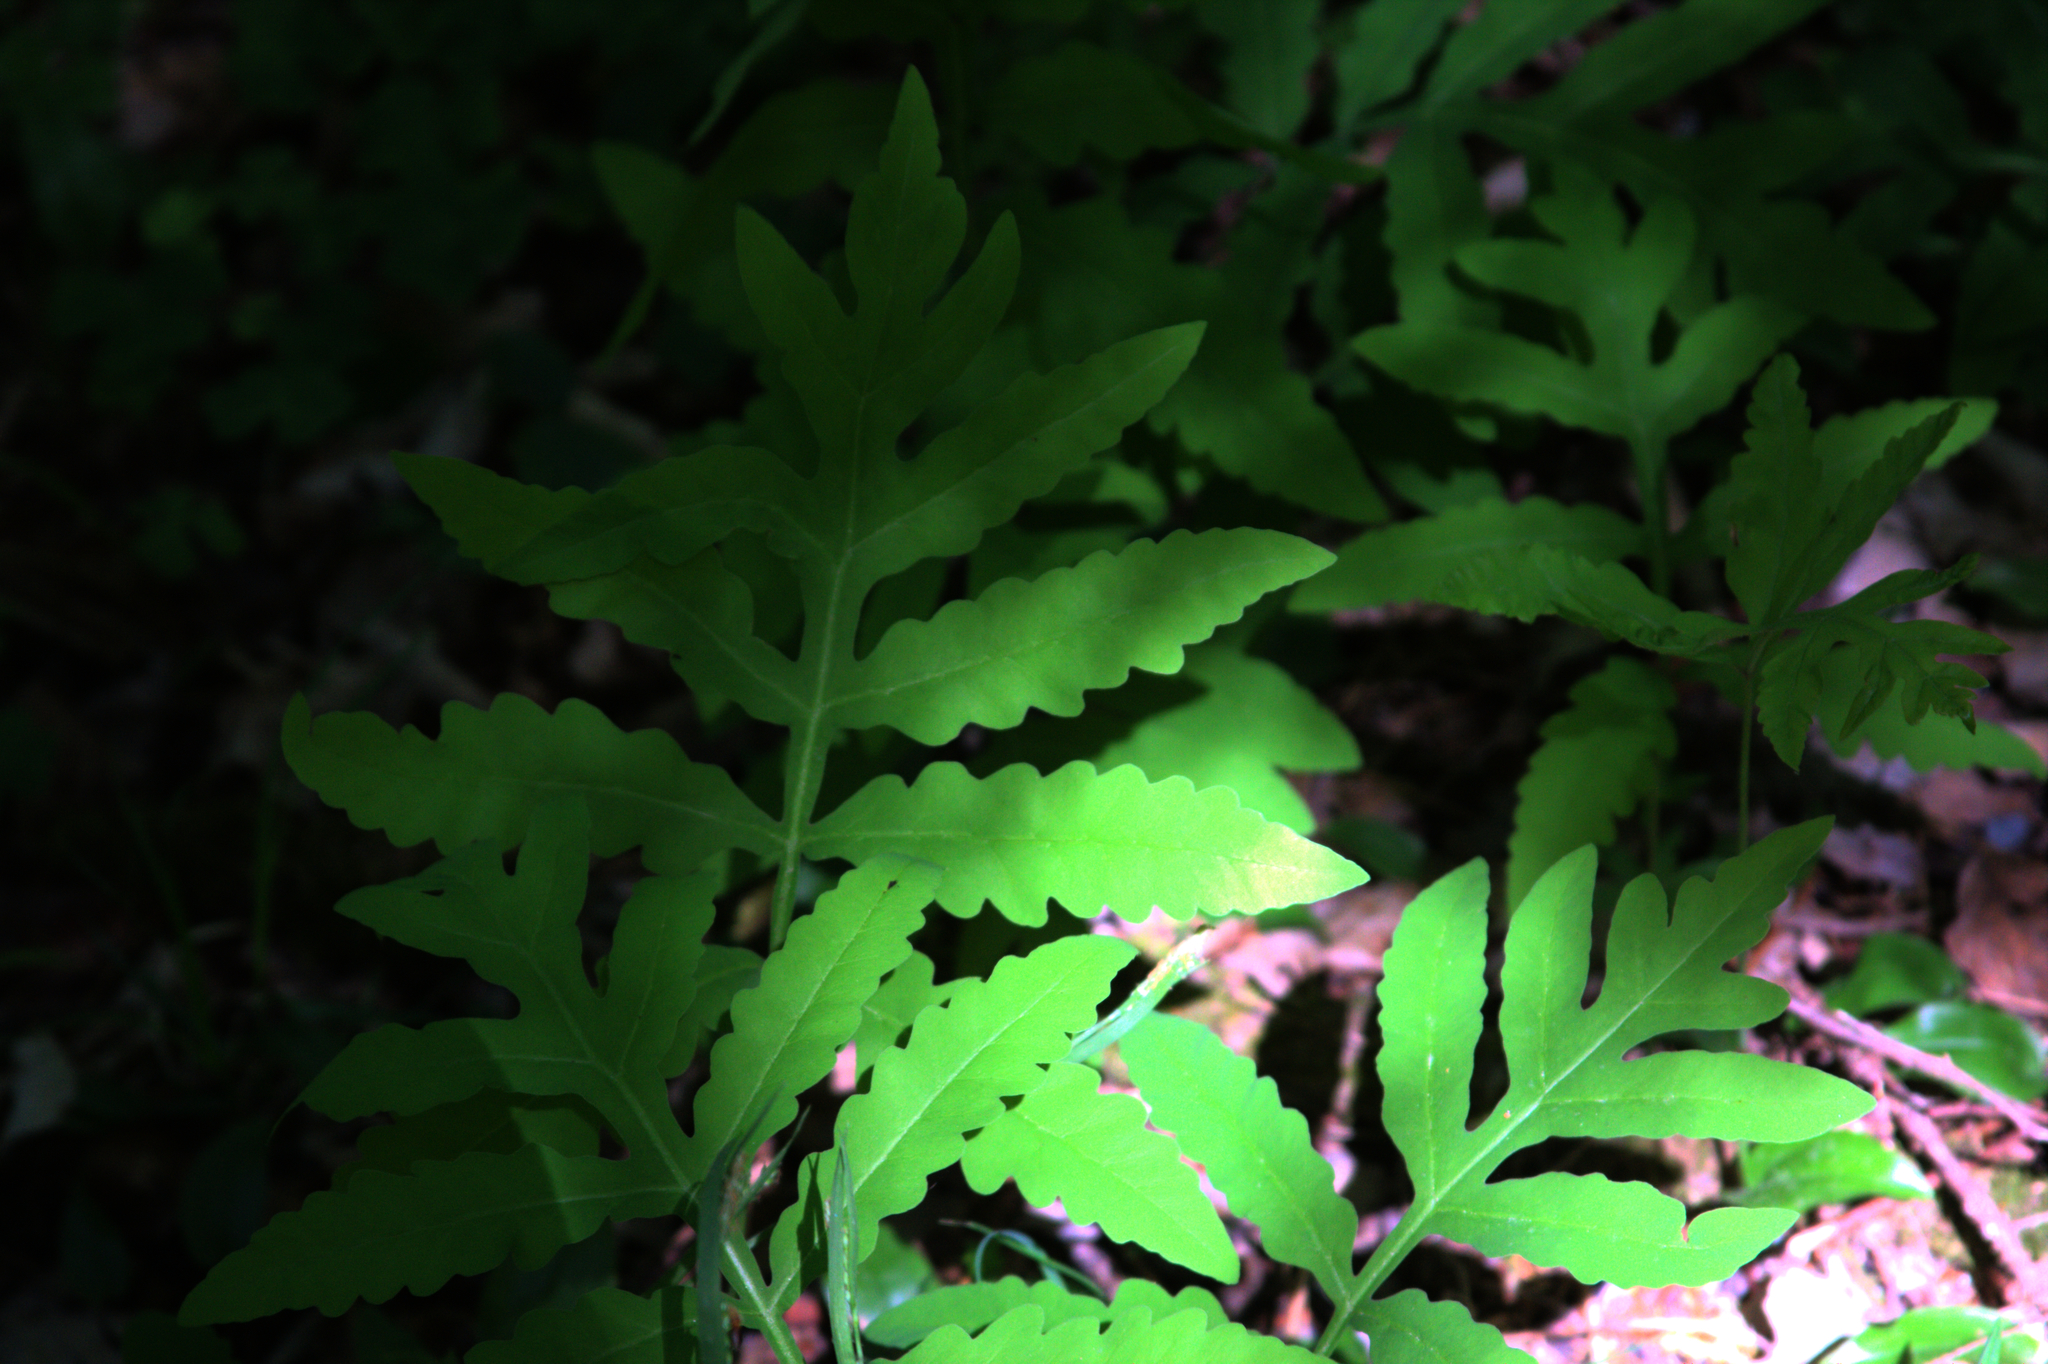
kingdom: Plantae
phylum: Tracheophyta
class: Polypodiopsida
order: Polypodiales
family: Onocleaceae
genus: Onoclea
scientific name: Onoclea sensibilis
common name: Sensitive fern
